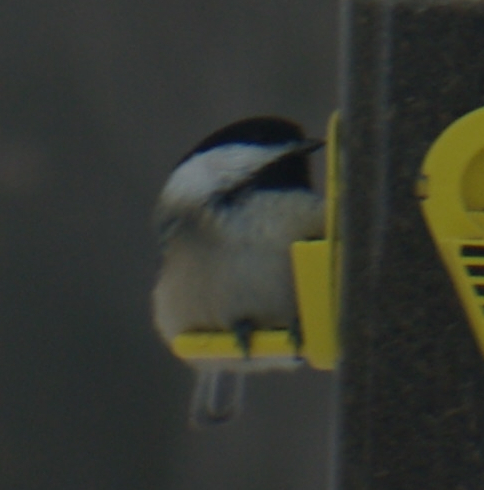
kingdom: Animalia
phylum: Chordata
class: Aves
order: Passeriformes
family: Paridae
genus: Poecile
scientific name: Poecile atricapillus
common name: Black-capped chickadee
